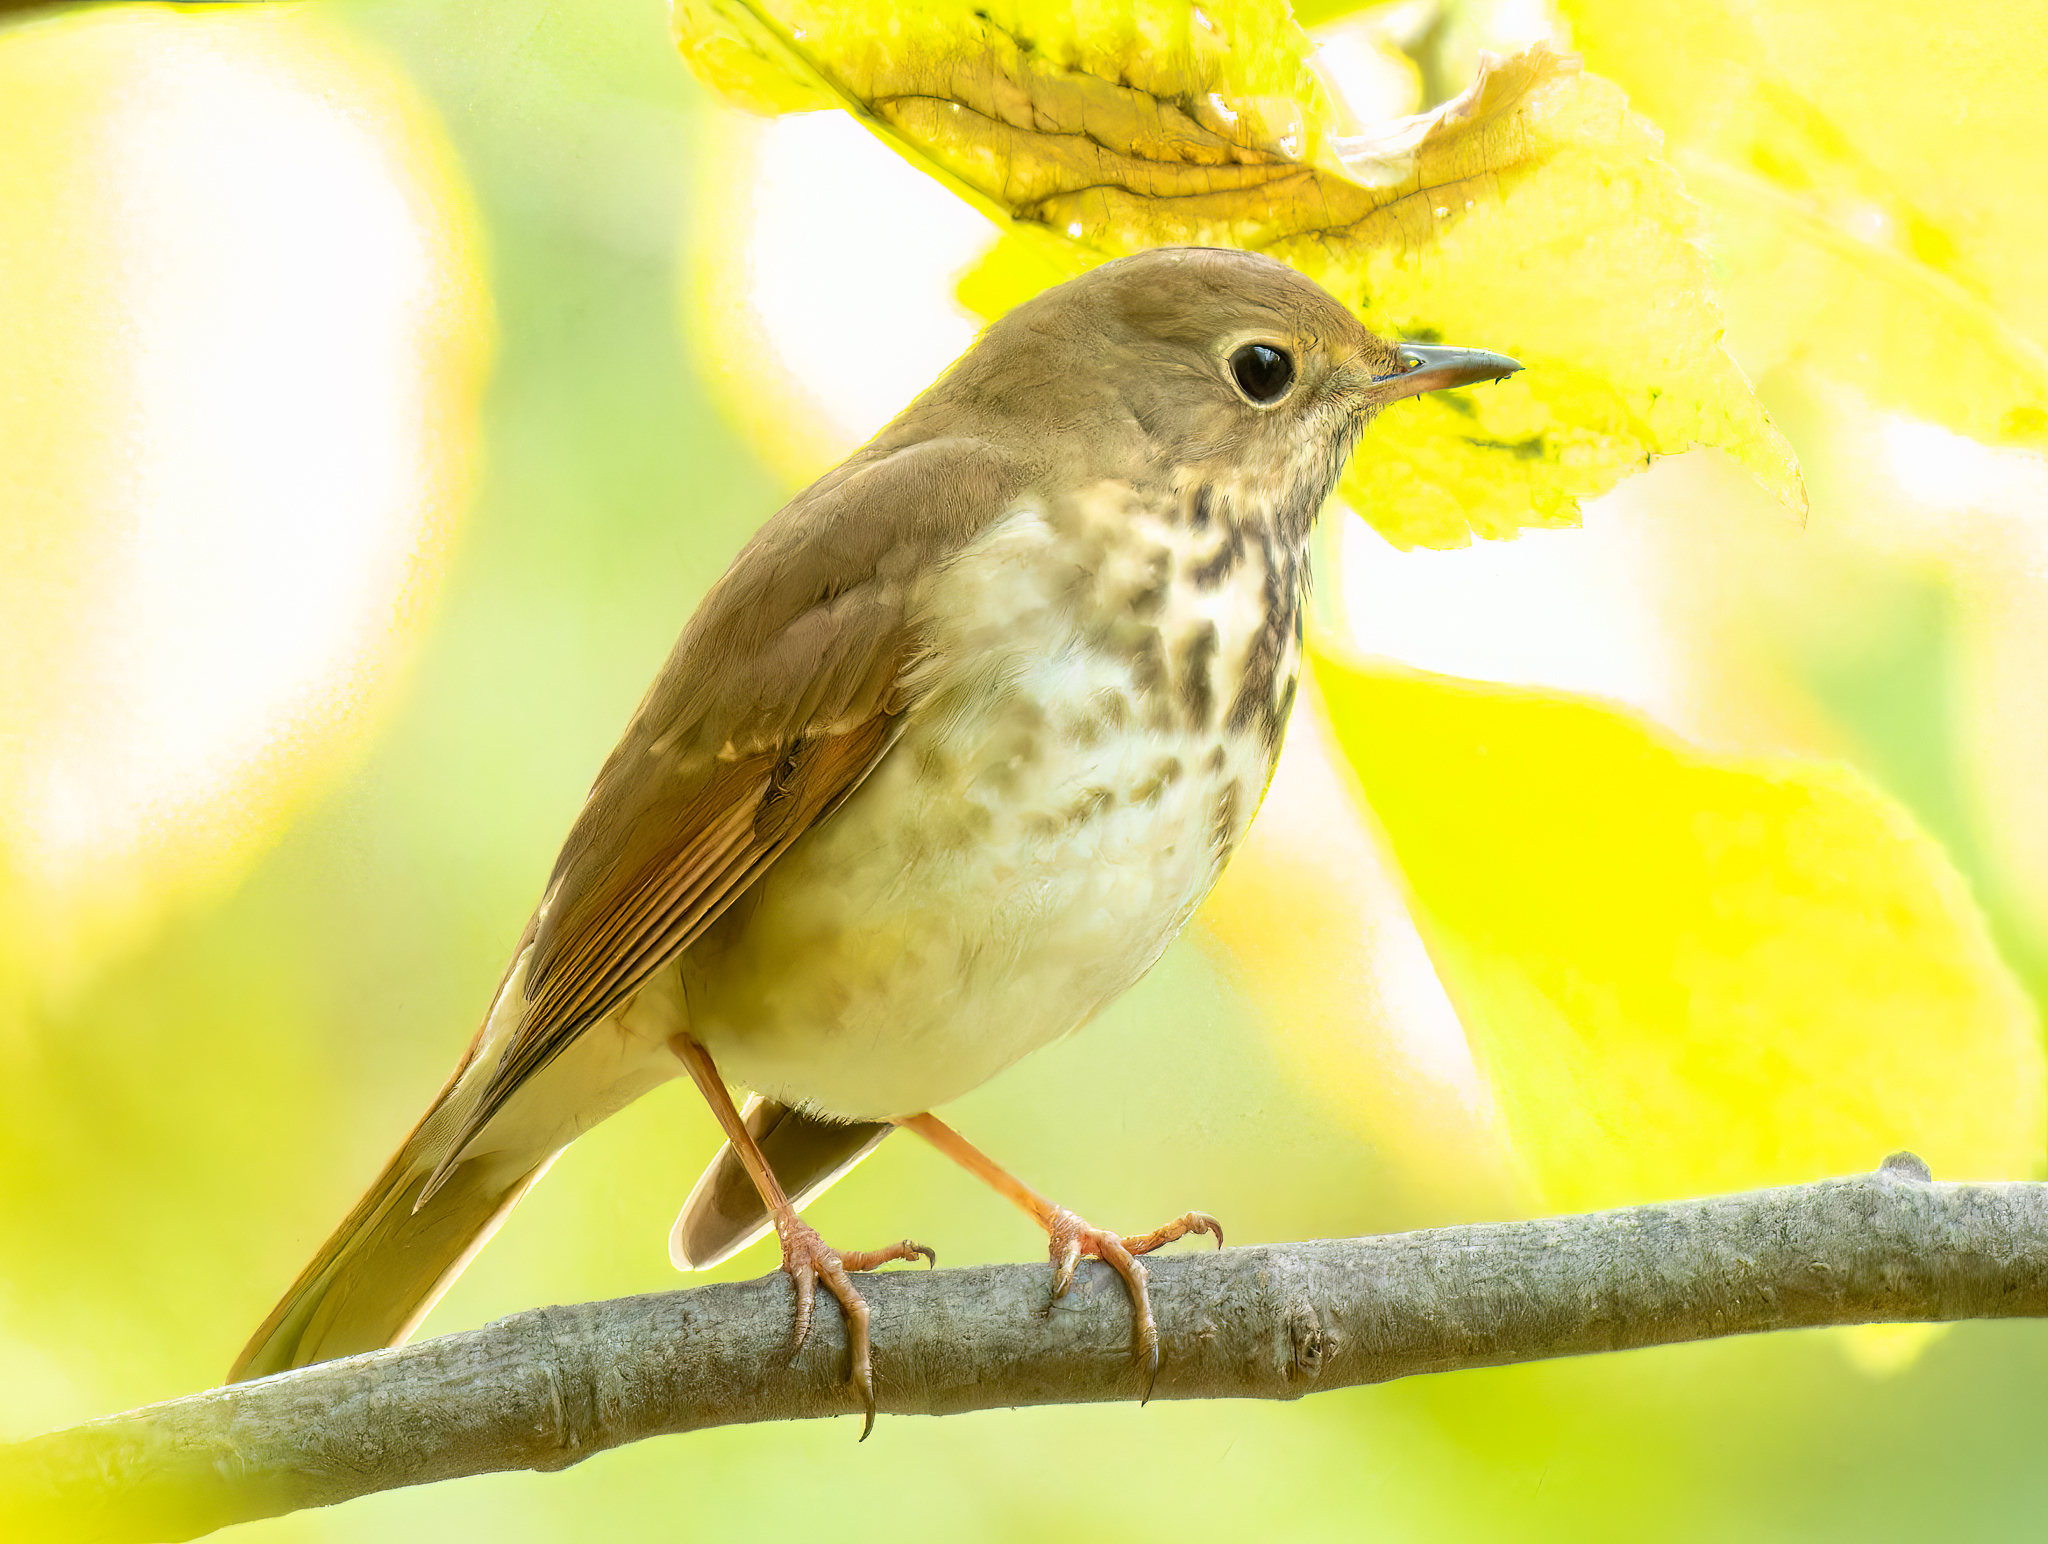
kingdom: Animalia
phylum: Chordata
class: Aves
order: Passeriformes
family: Turdidae
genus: Catharus
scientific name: Catharus guttatus
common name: Hermit thrush
